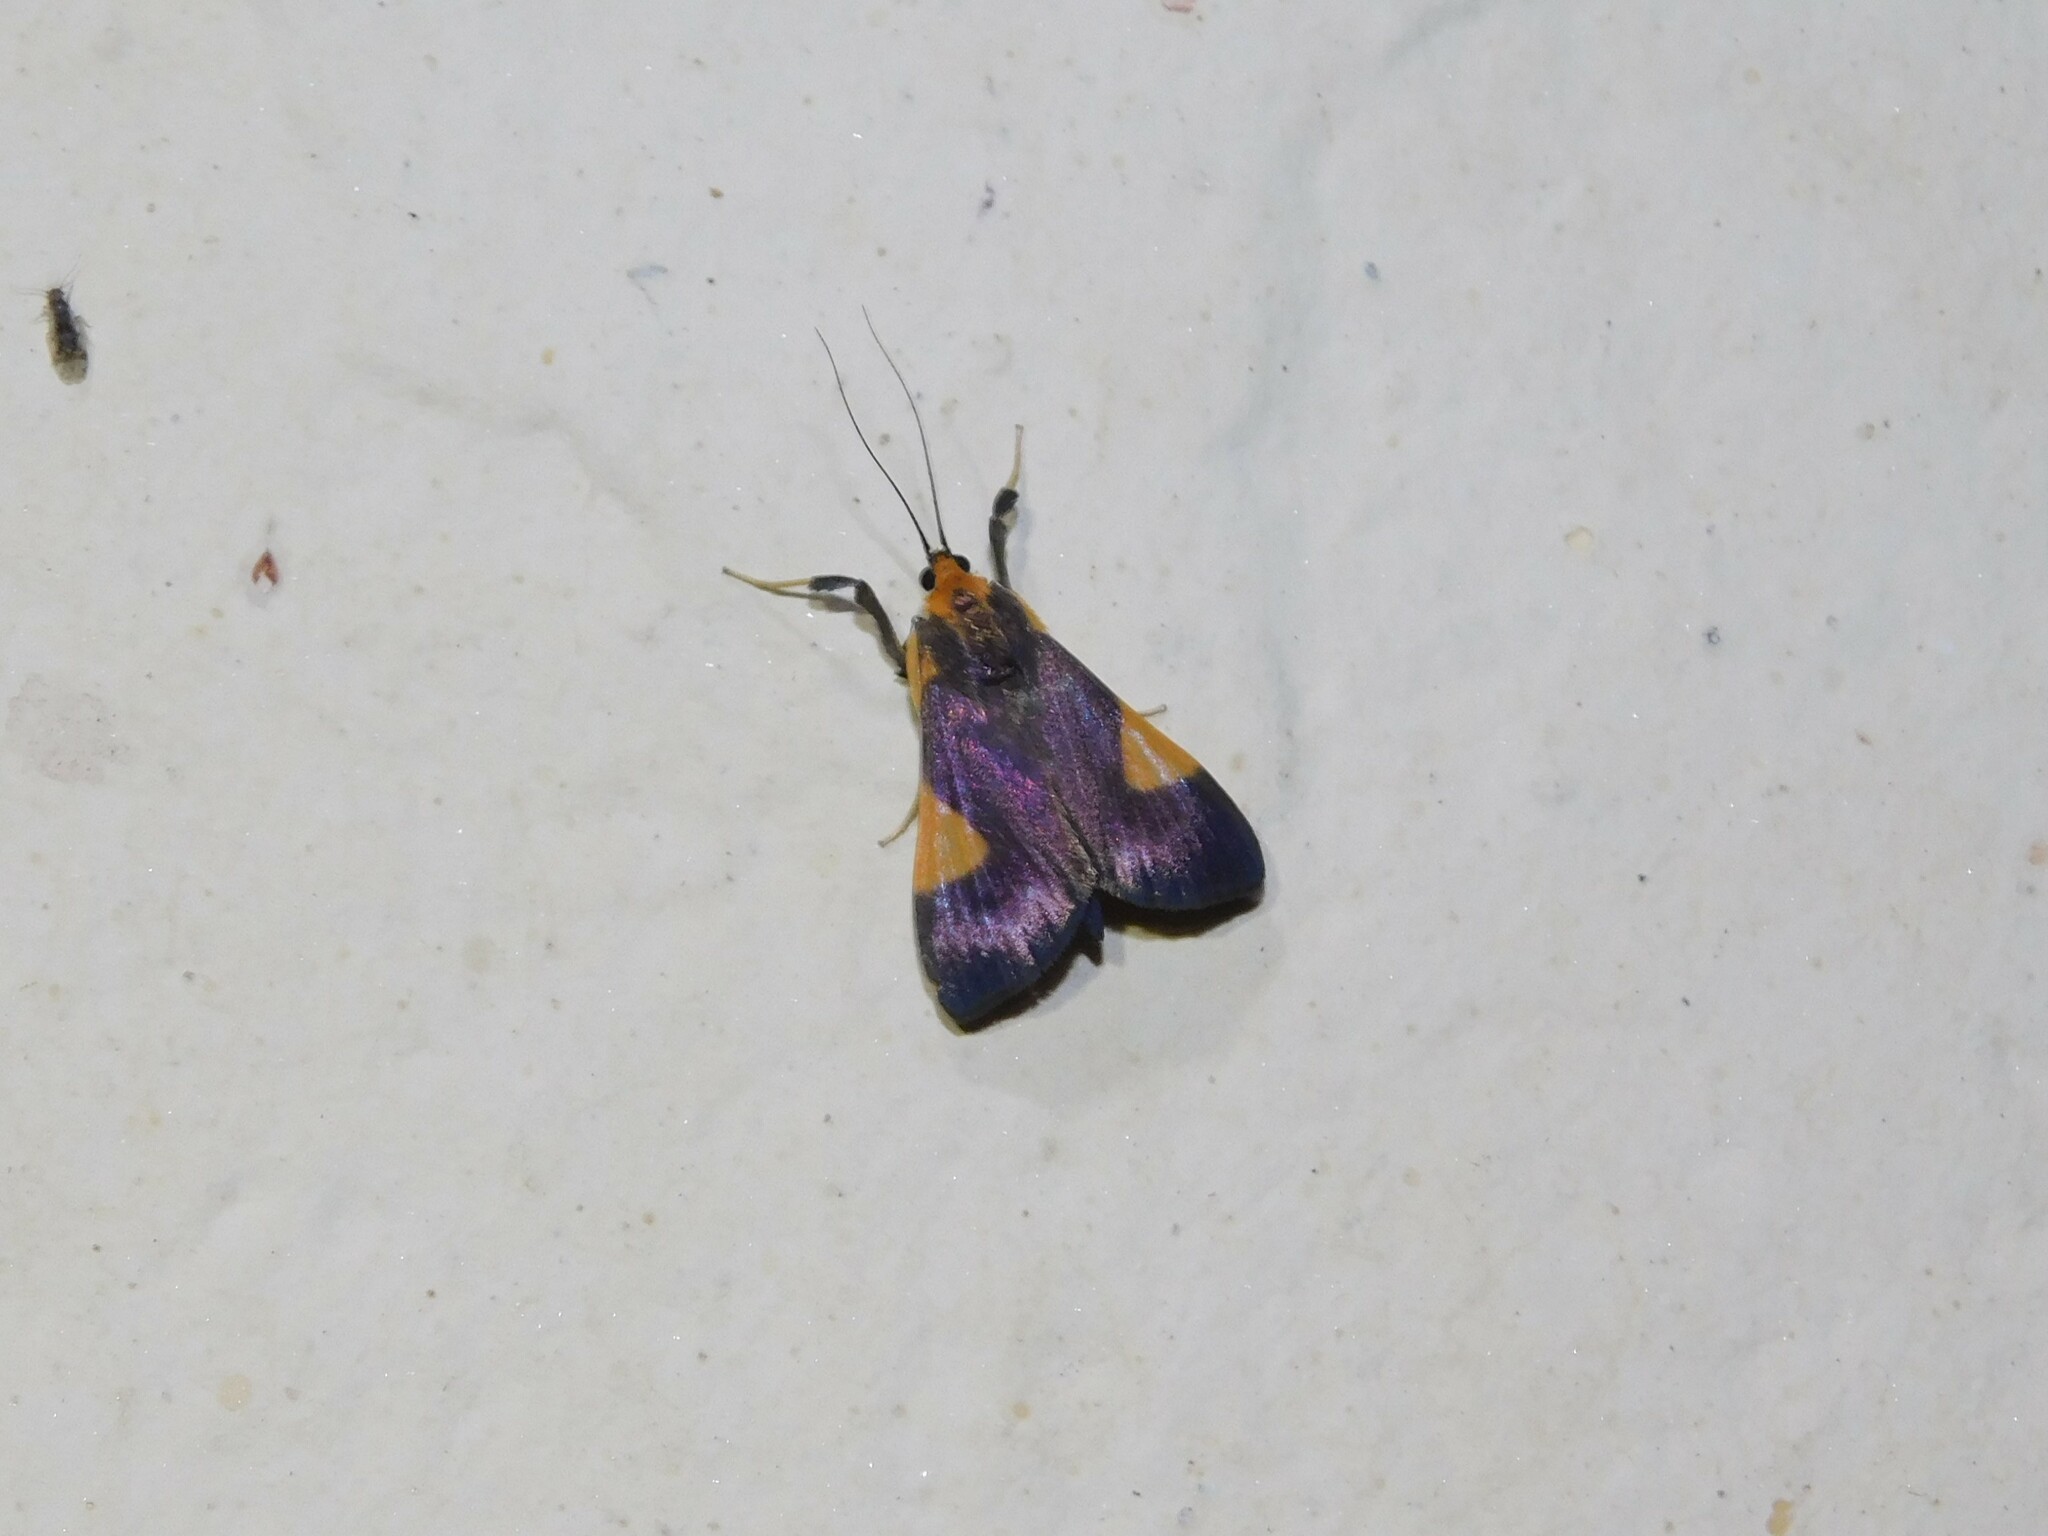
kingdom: Animalia
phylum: Arthropoda
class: Insecta
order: Lepidoptera
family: Crambidae
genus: Ulopeza
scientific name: Ulopeza conigeralis
